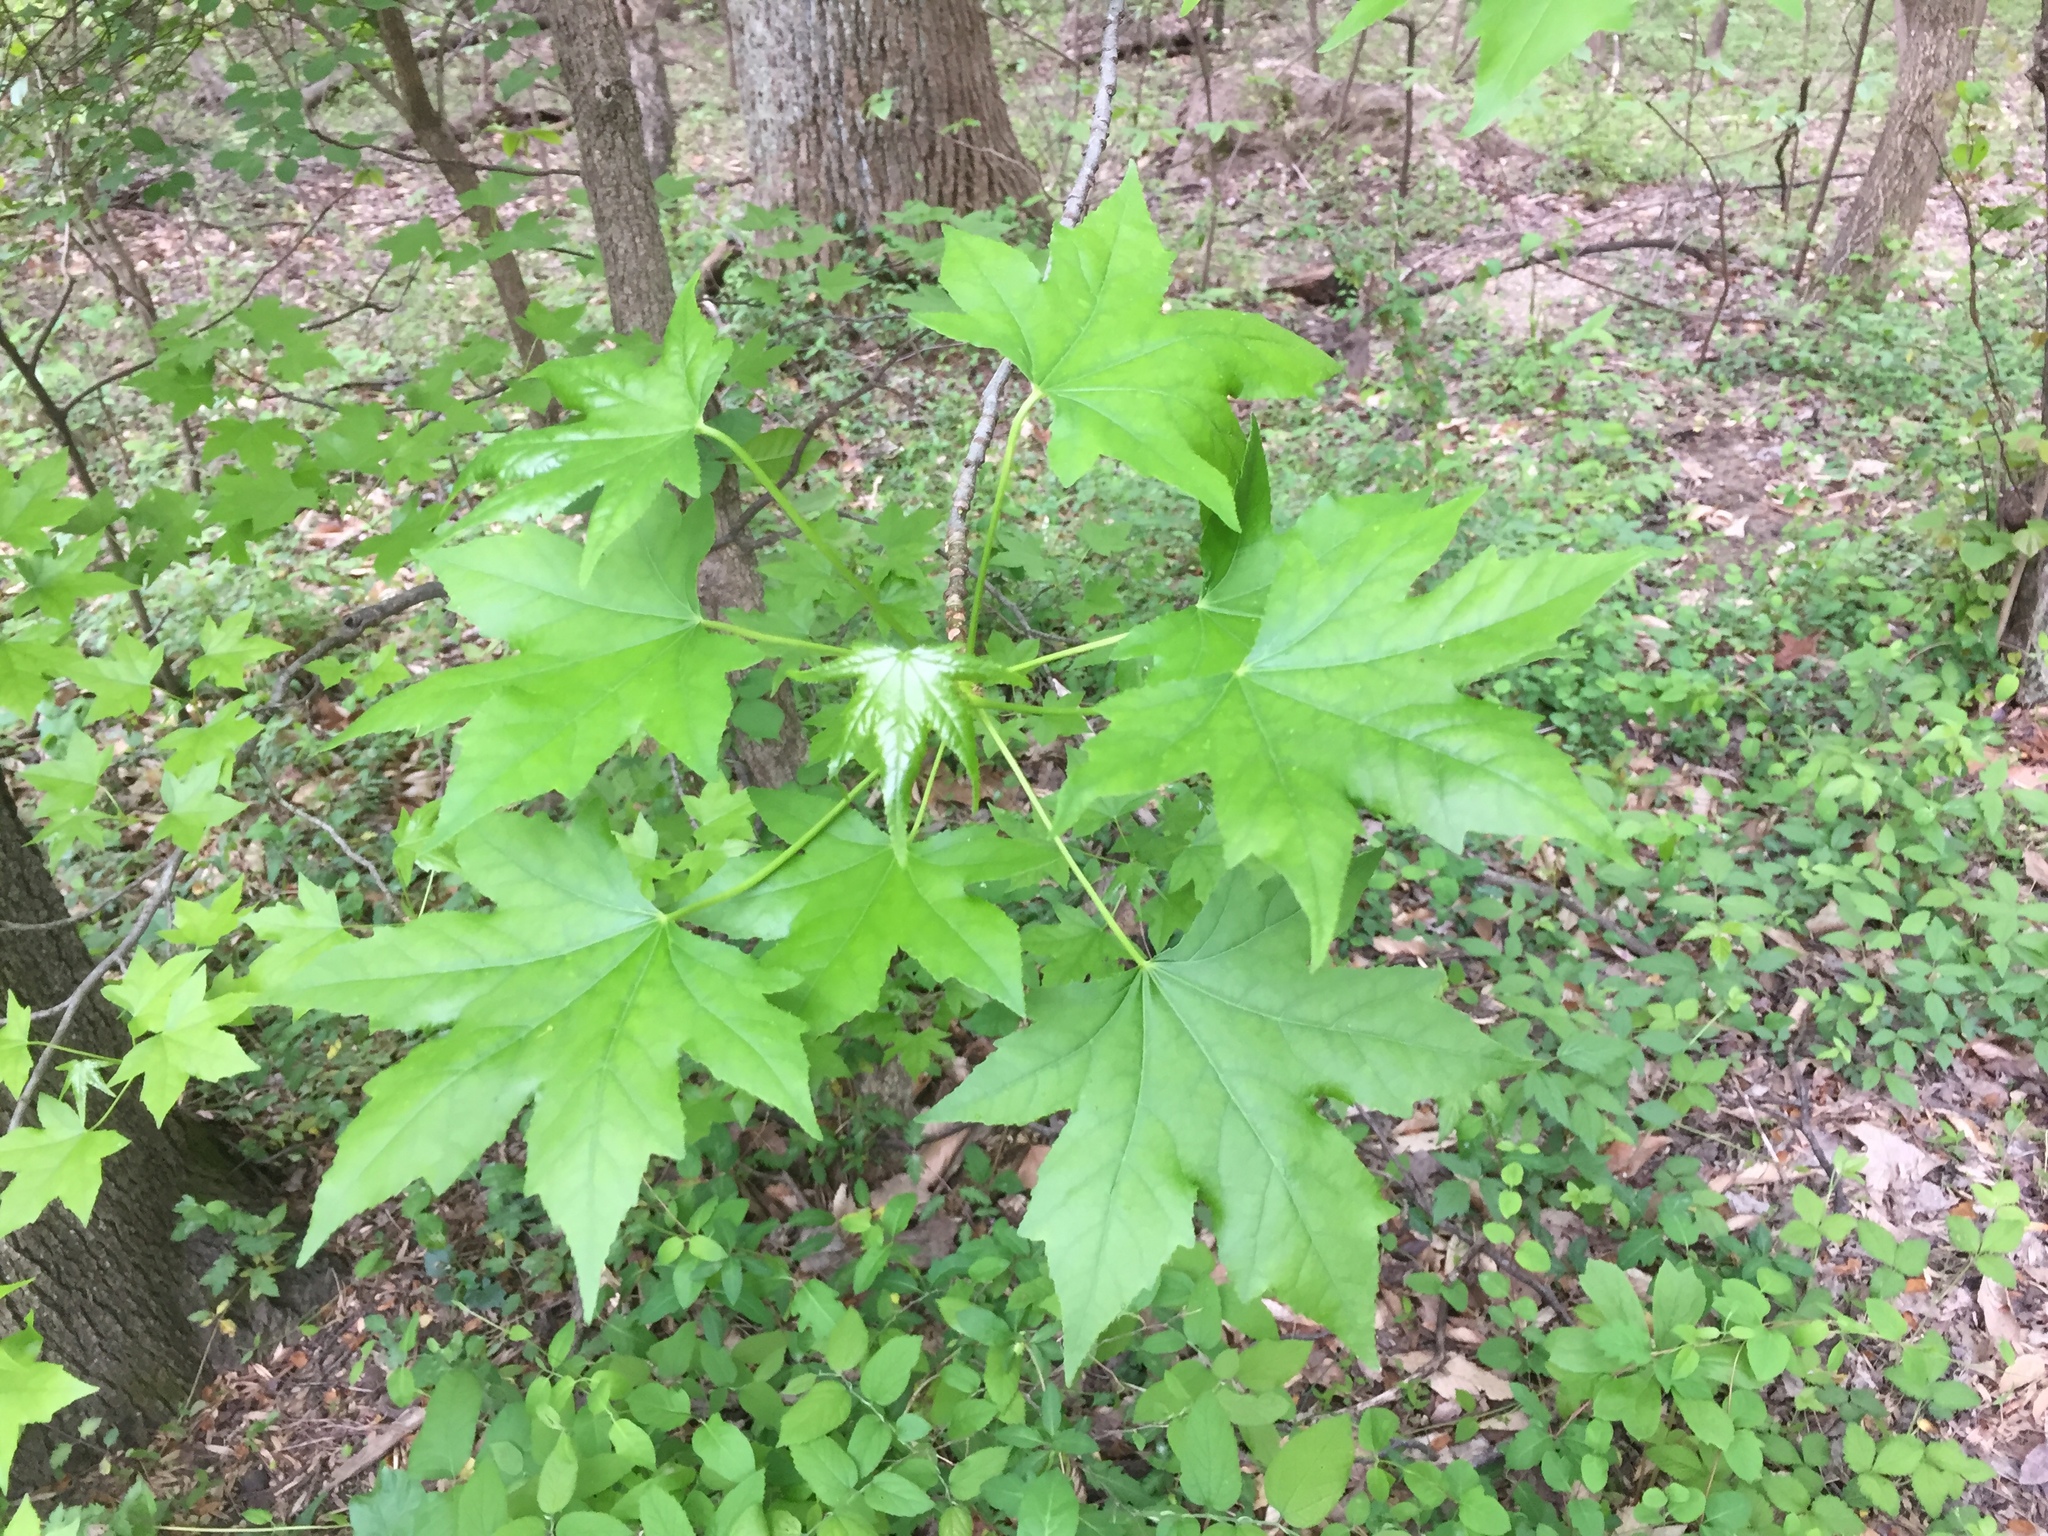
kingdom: Plantae
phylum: Tracheophyta
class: Magnoliopsida
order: Saxifragales
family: Altingiaceae
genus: Liquidambar
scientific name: Liquidambar styraciflua
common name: Sweet gum
